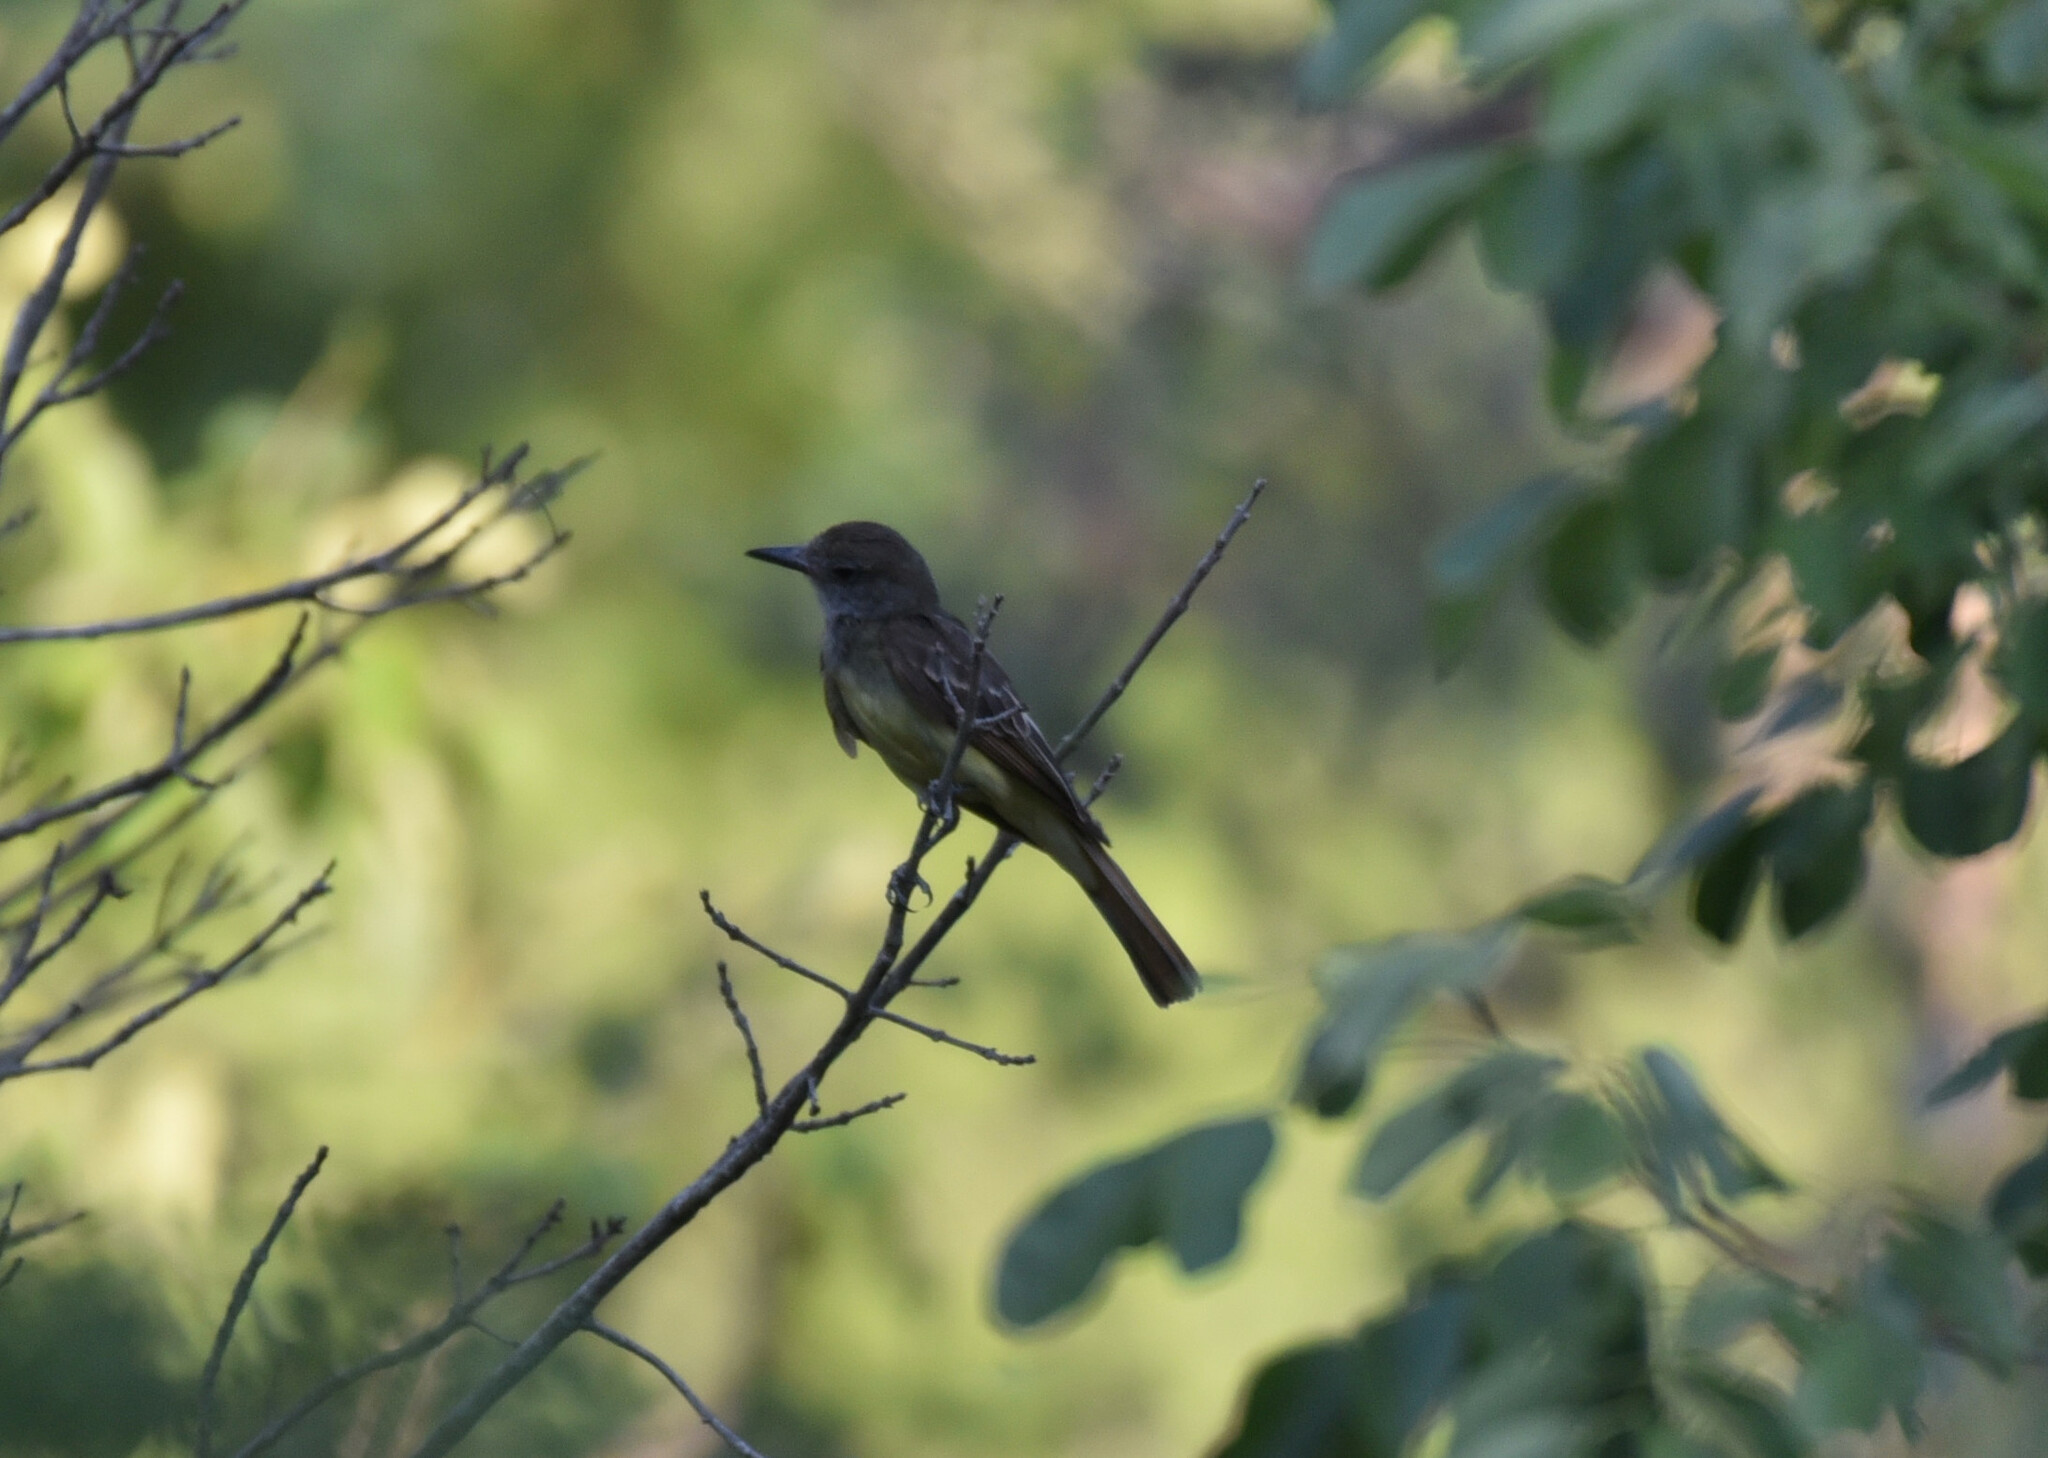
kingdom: Animalia
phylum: Chordata
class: Aves
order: Passeriformes
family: Tyrannidae
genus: Myiarchus
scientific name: Myiarchus cinerascens
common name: Ash-throated flycatcher
